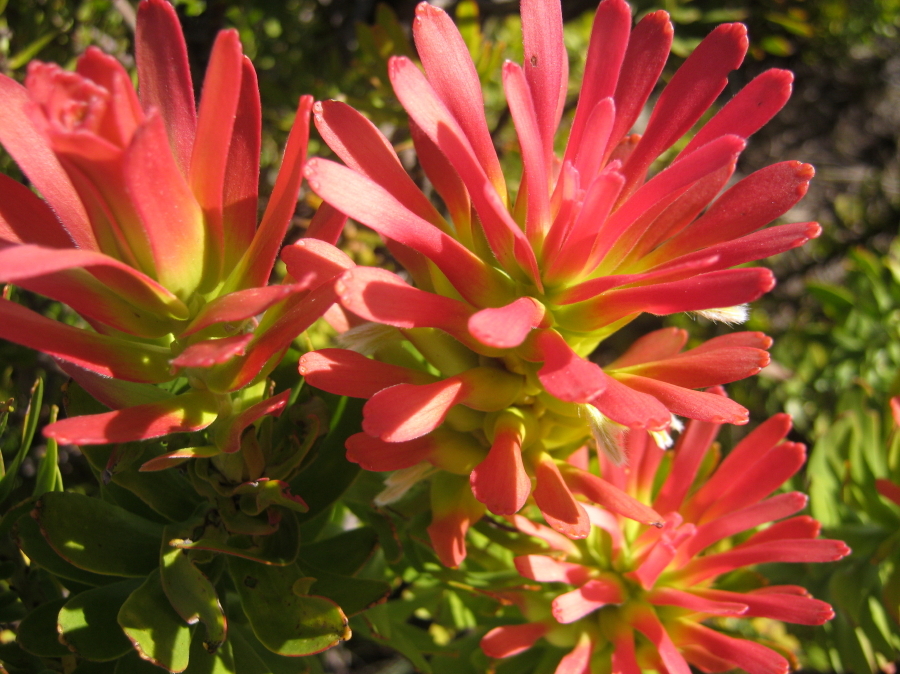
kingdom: Plantae
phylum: Tracheophyta
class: Magnoliopsida
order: Proteales
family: Proteaceae
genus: Mimetes
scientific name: Mimetes cucullatus
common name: Common pagoda
